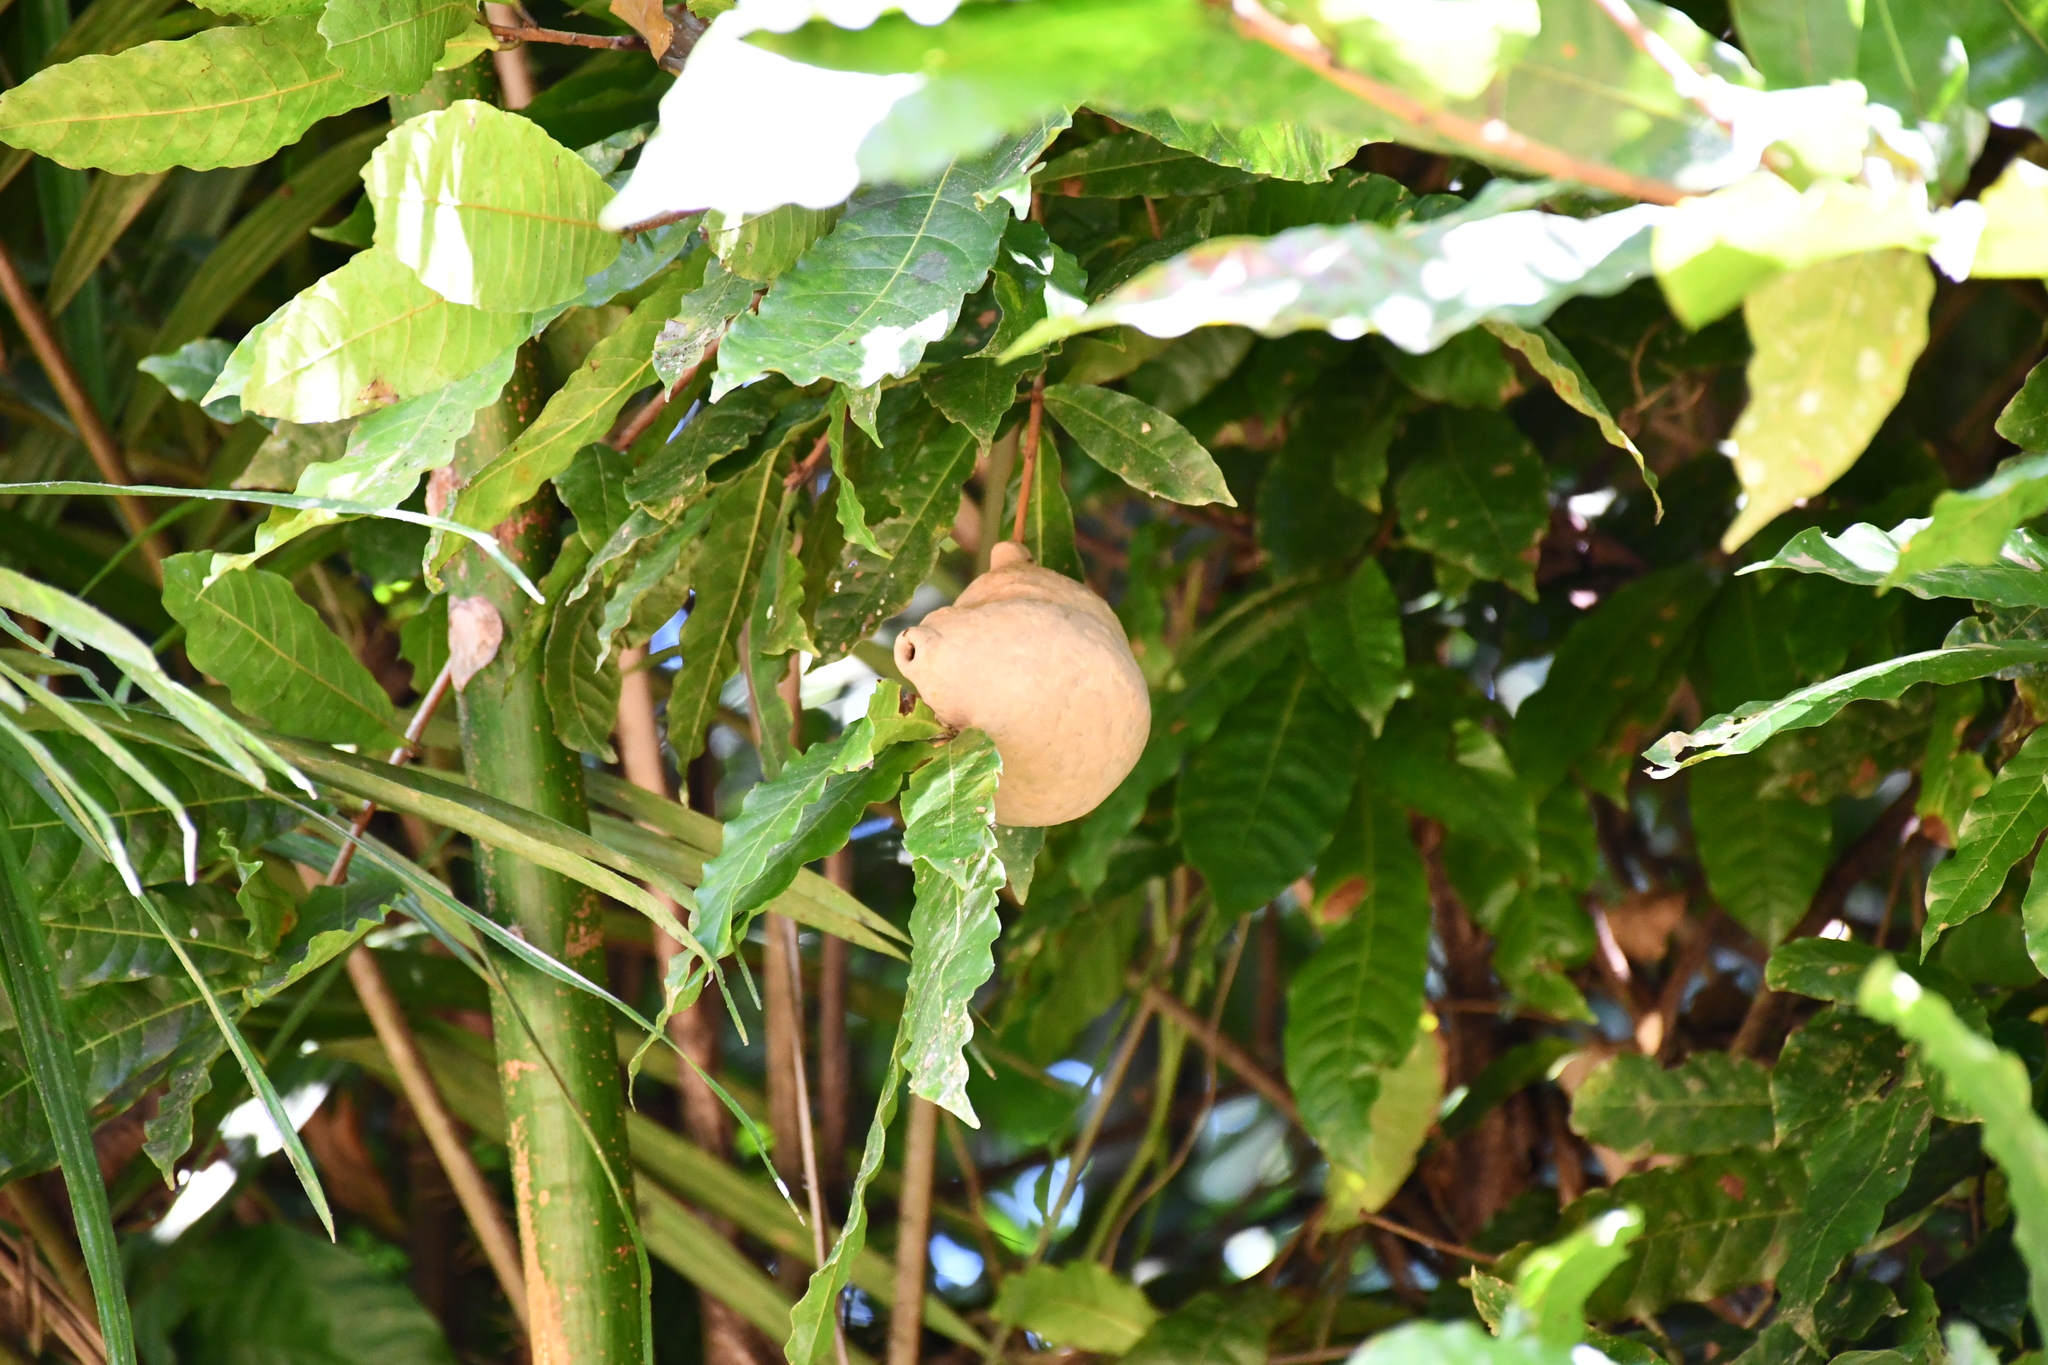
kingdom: Animalia
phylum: Arthropoda
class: Insecta
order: Hymenoptera
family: Eumenidae
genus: Polybia
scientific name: Polybia emaciata
